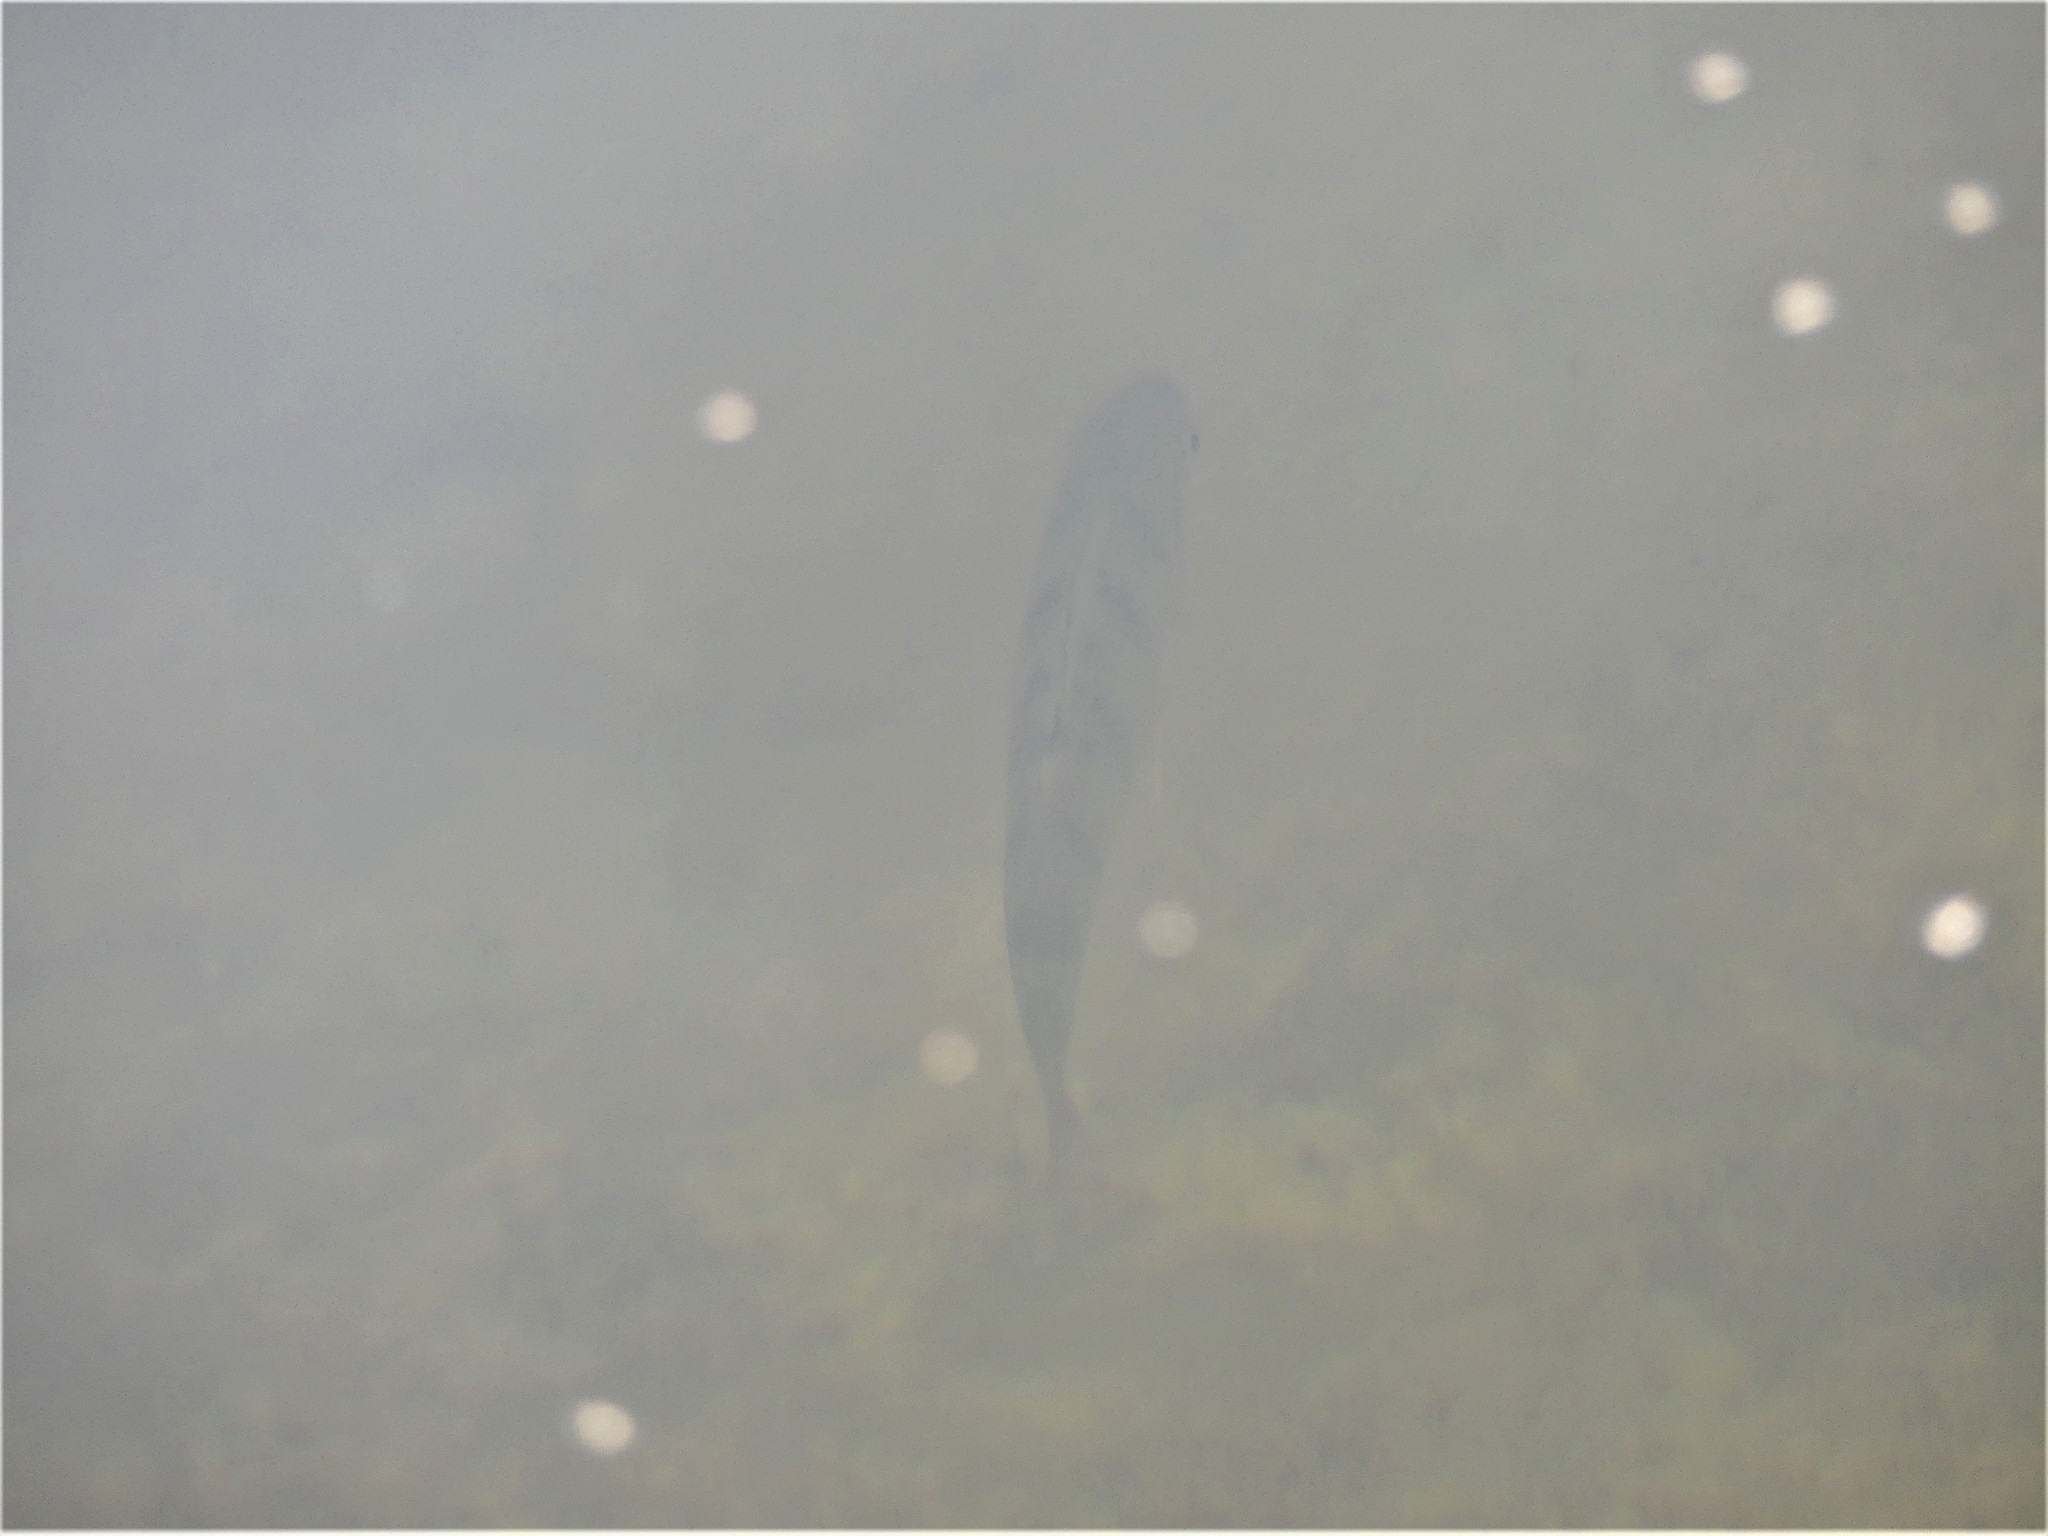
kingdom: Animalia
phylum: Chordata
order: Perciformes
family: Percidae
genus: Perca
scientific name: Perca fluviatilis
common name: Perch
